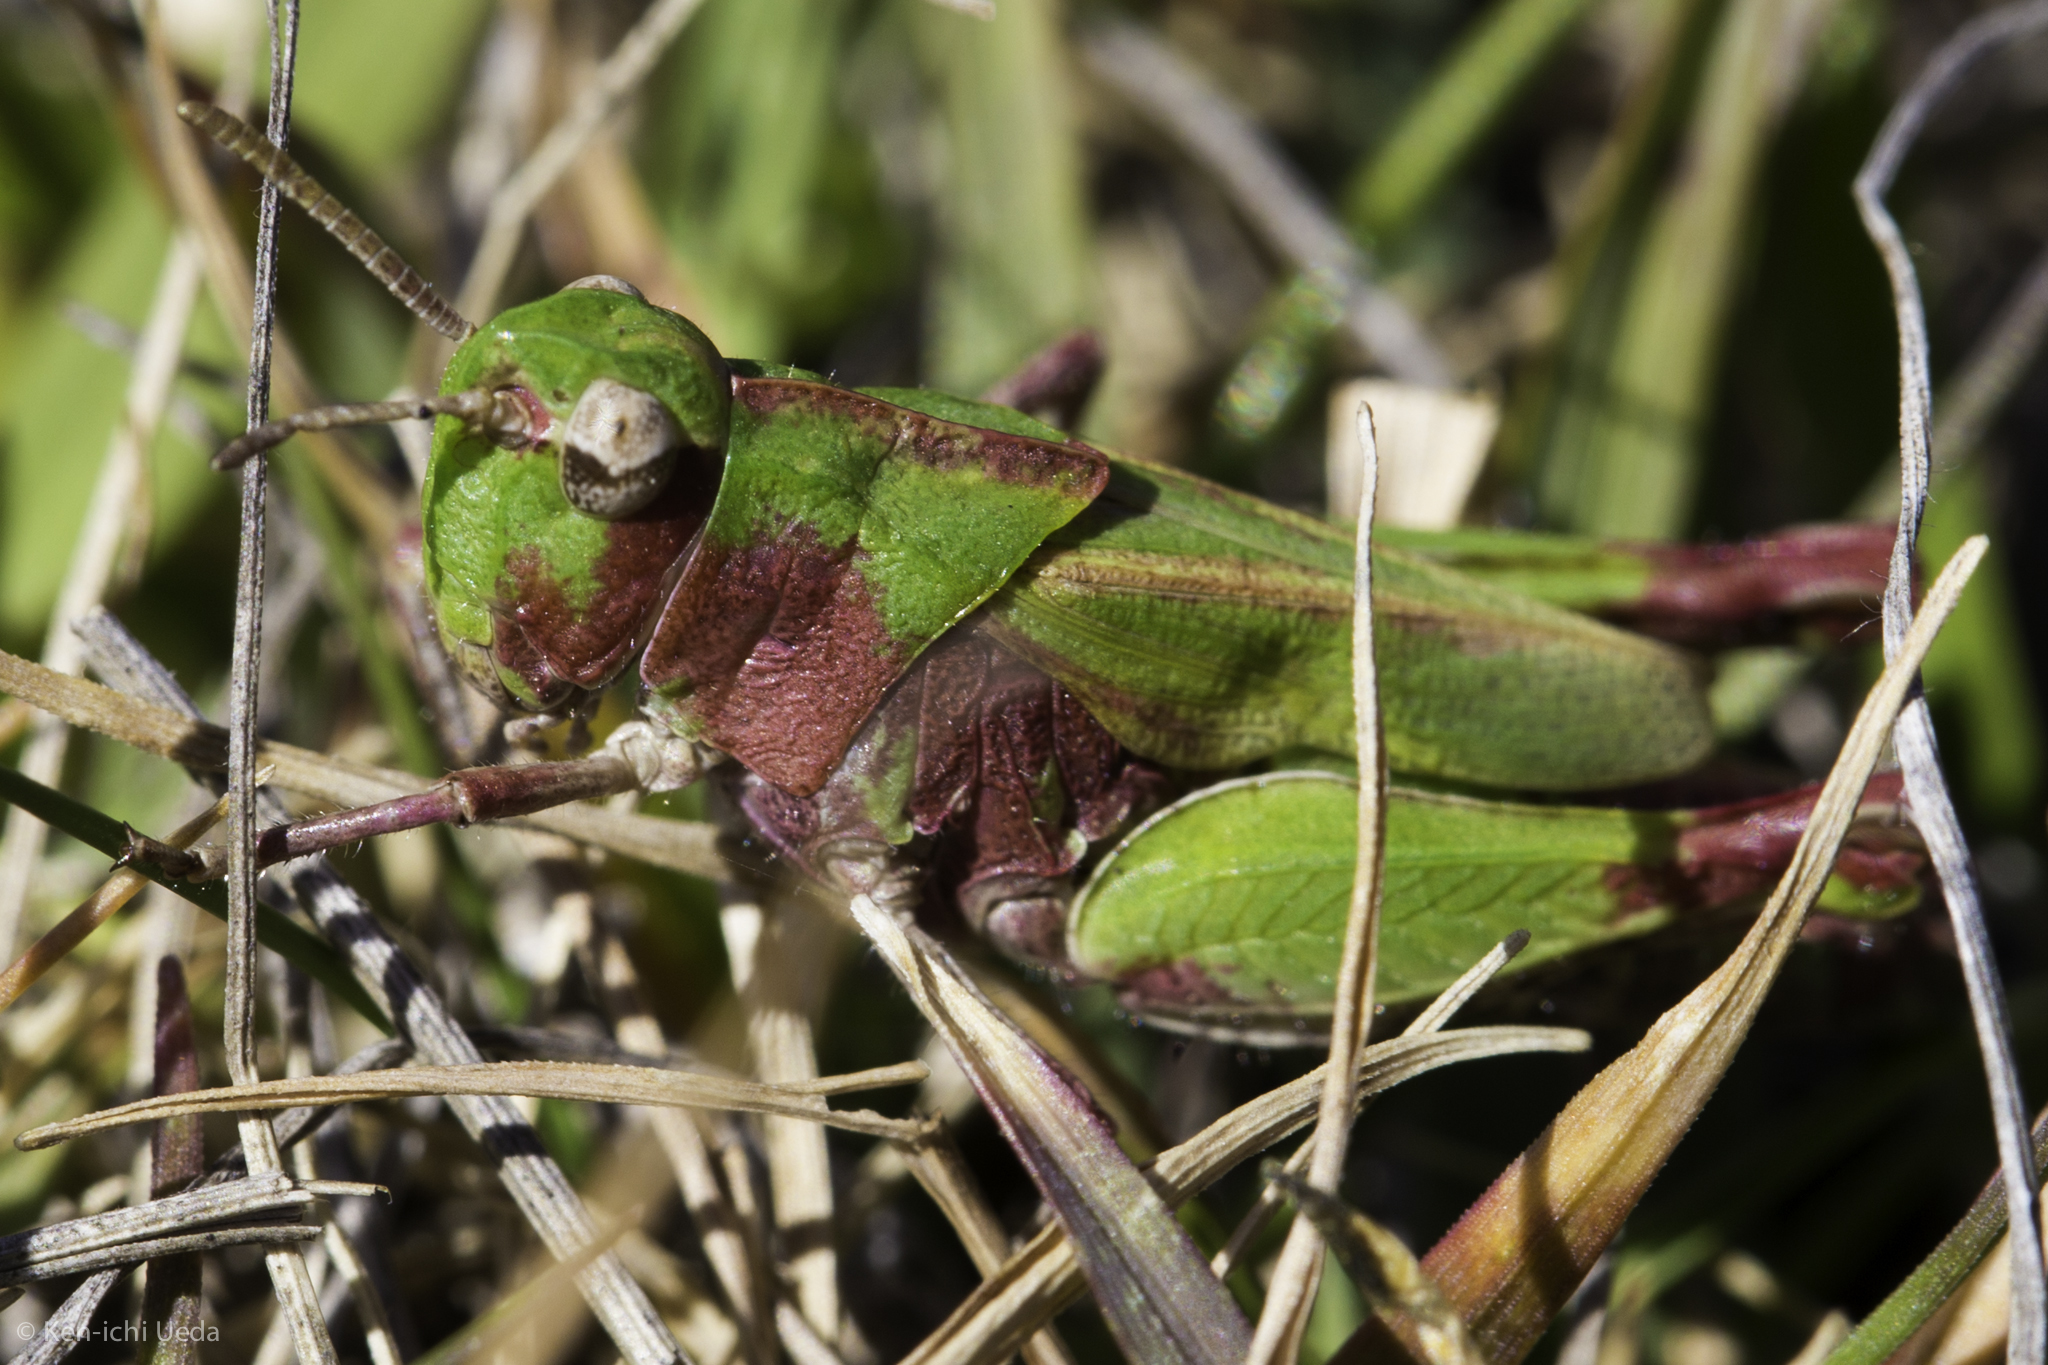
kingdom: Animalia
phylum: Arthropoda
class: Insecta
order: Orthoptera
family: Acrididae
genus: Chimarocephala
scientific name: Chimarocephala pacifica
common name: Painted meadow grasshopper
